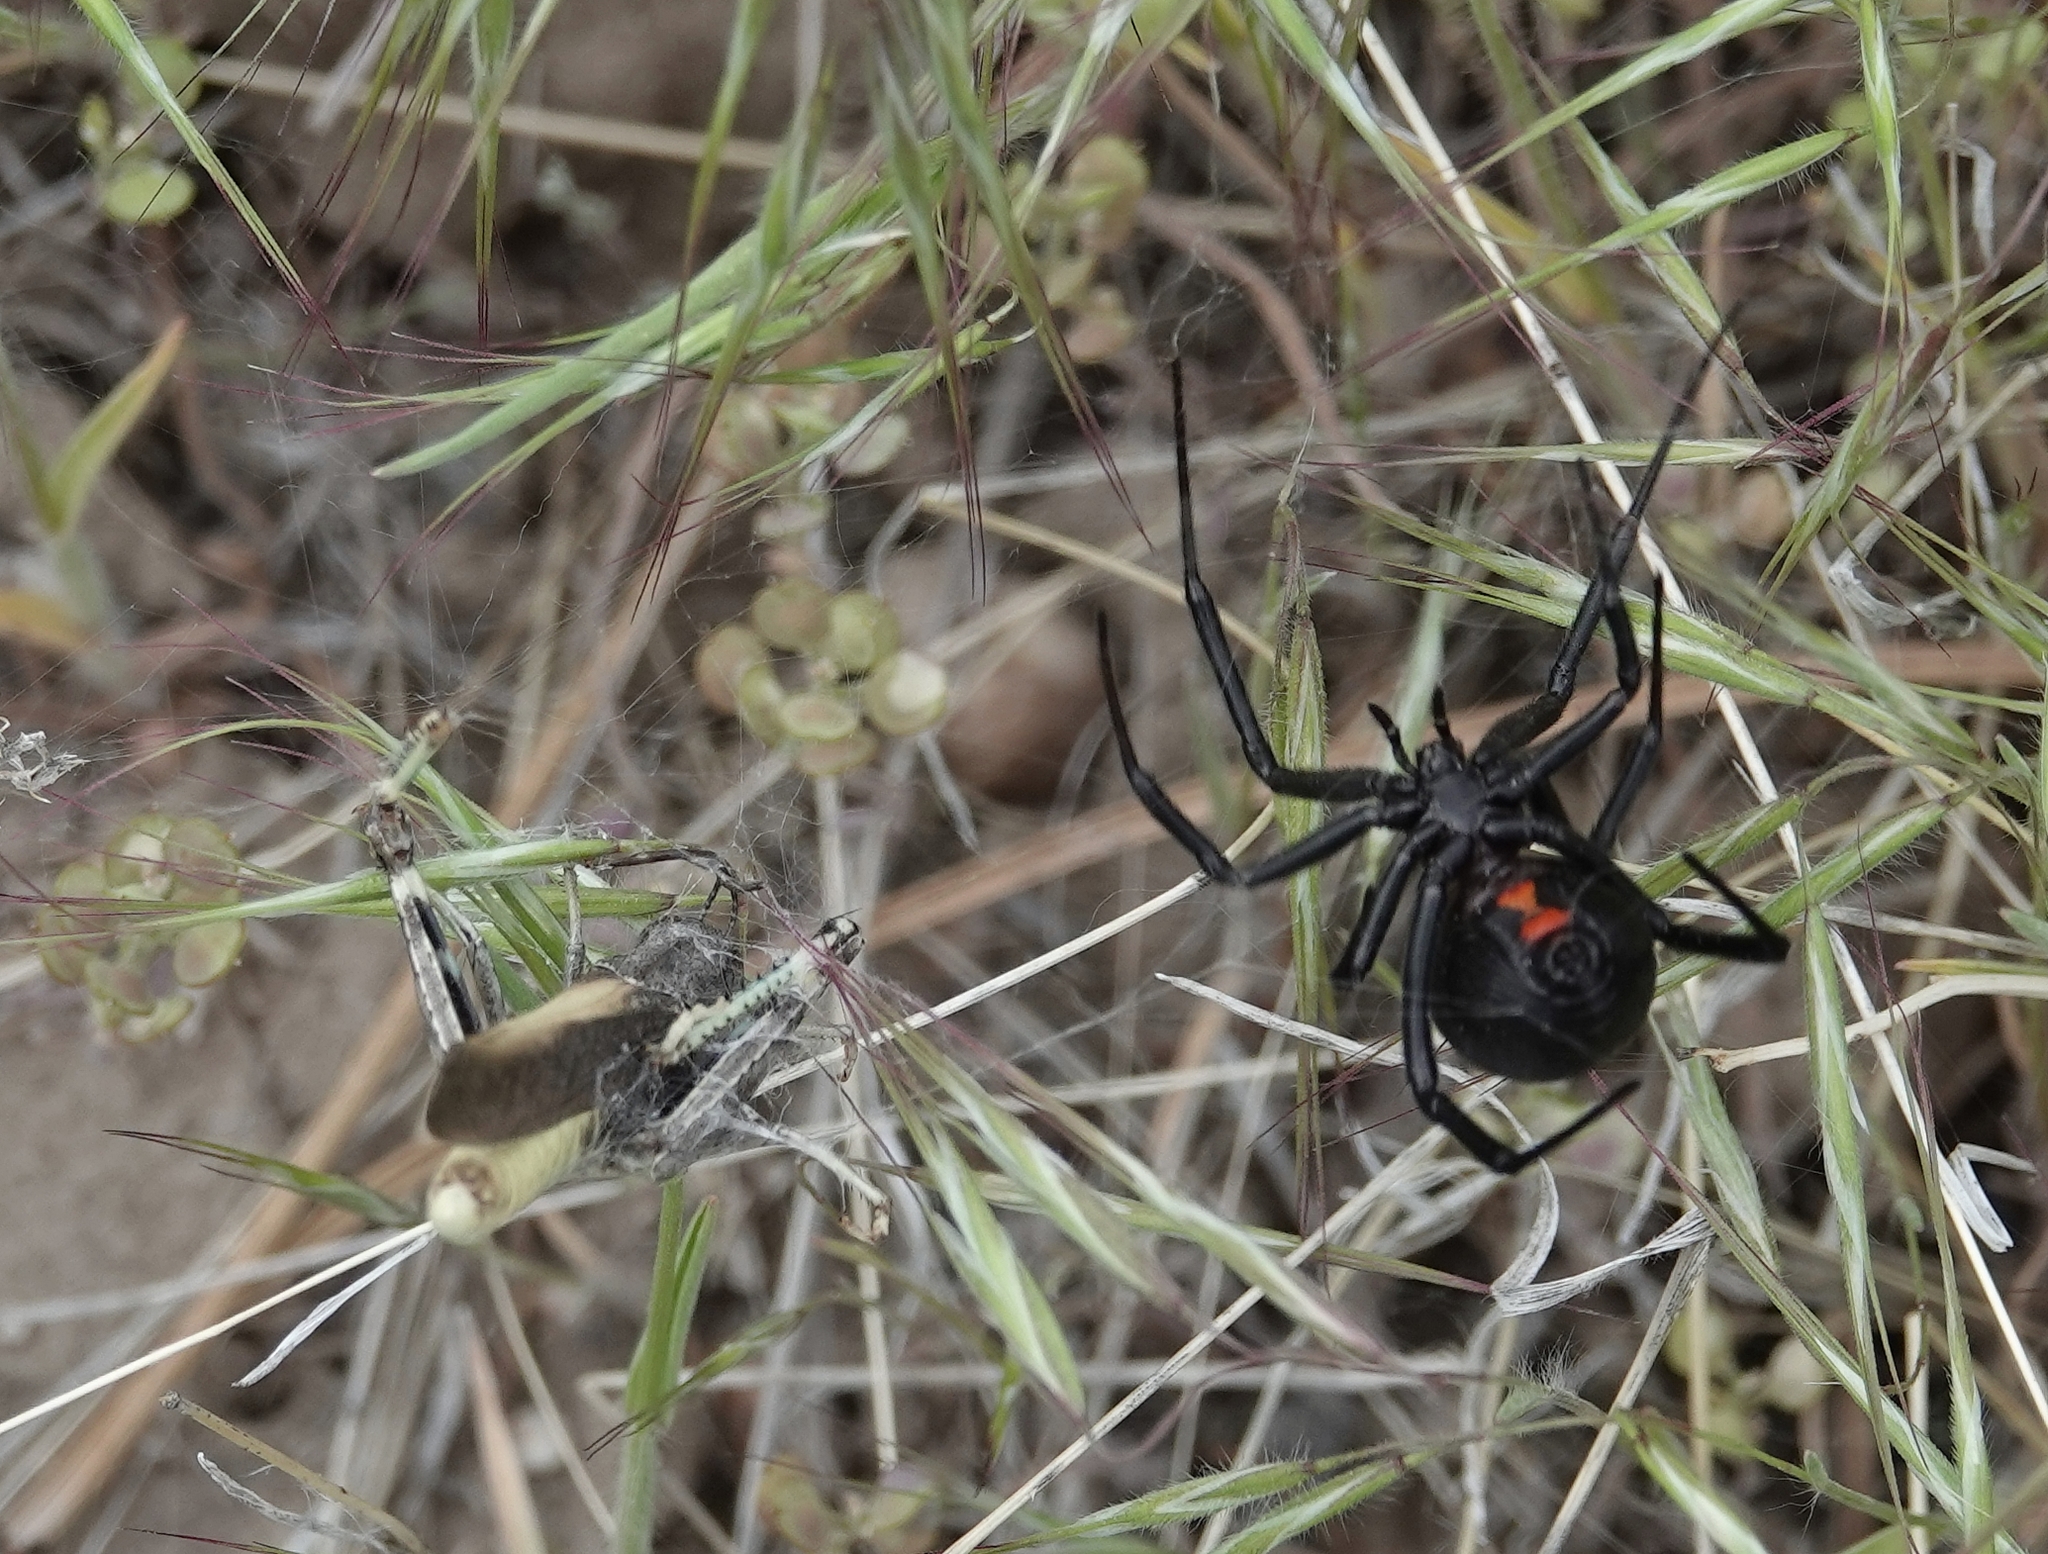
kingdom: Animalia
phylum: Arthropoda
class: Arachnida
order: Araneae
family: Theridiidae
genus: Latrodectus
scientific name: Latrodectus hesperus
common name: Western black widow
